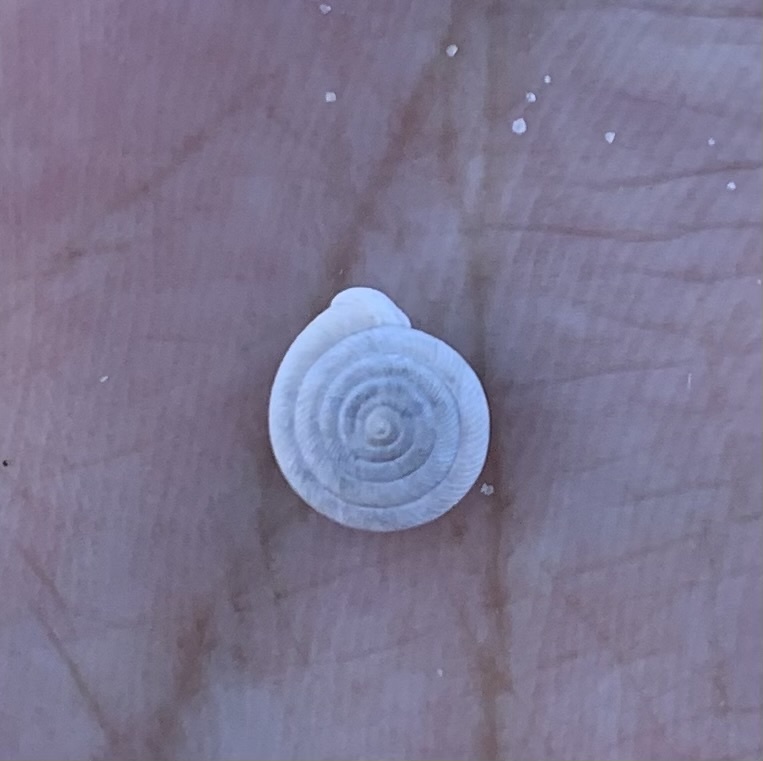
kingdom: Animalia
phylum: Mollusca
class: Gastropoda
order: Stylommatophora
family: Polygyridae
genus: Polygyra
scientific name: Polygyra cereolus
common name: Southern flatcone snail
